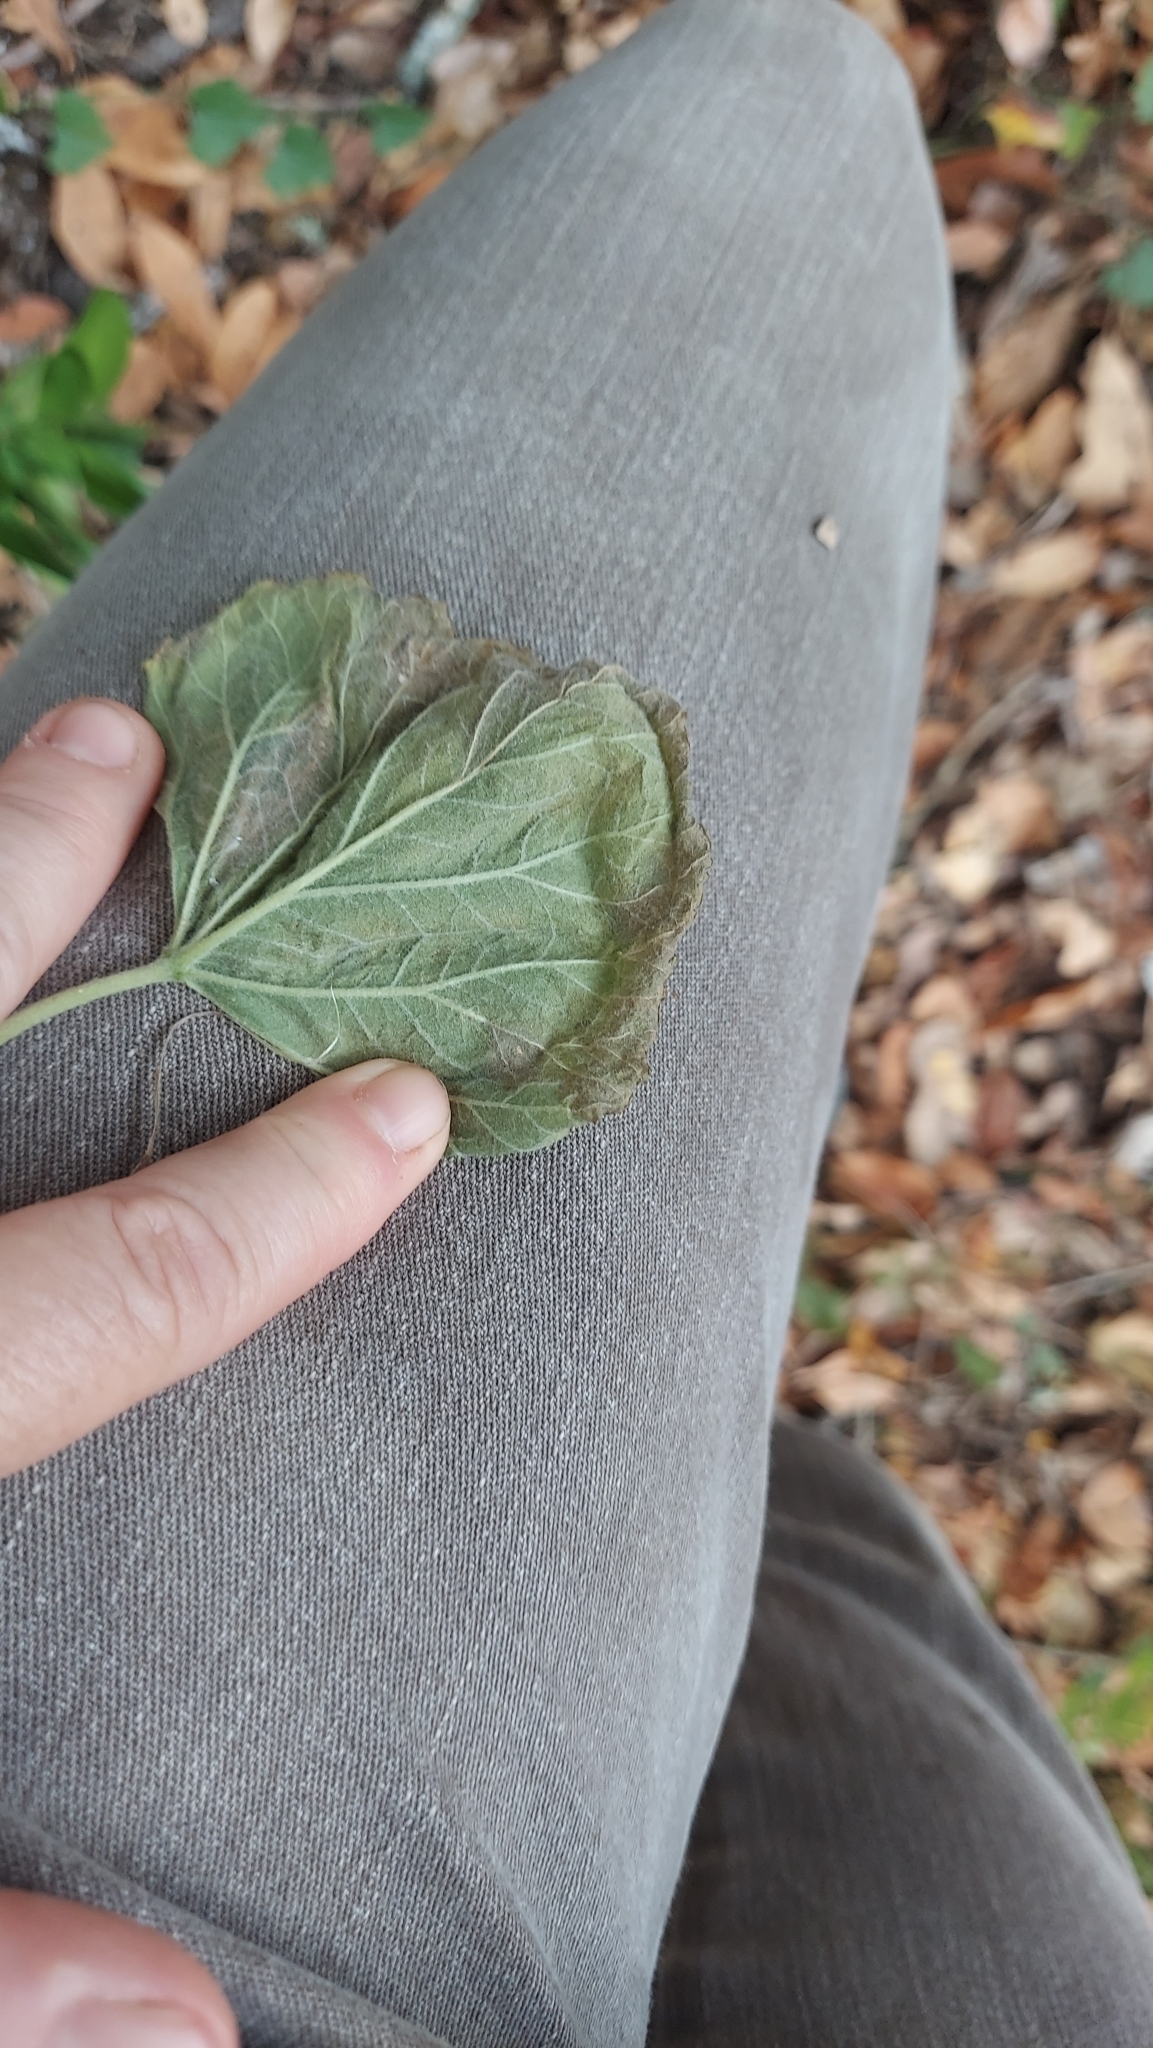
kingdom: Plantae
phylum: Tracheophyta
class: Magnoliopsida
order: Solanales
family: Convolvulaceae
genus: Ipomoea
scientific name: Ipomoea macrorhiza
